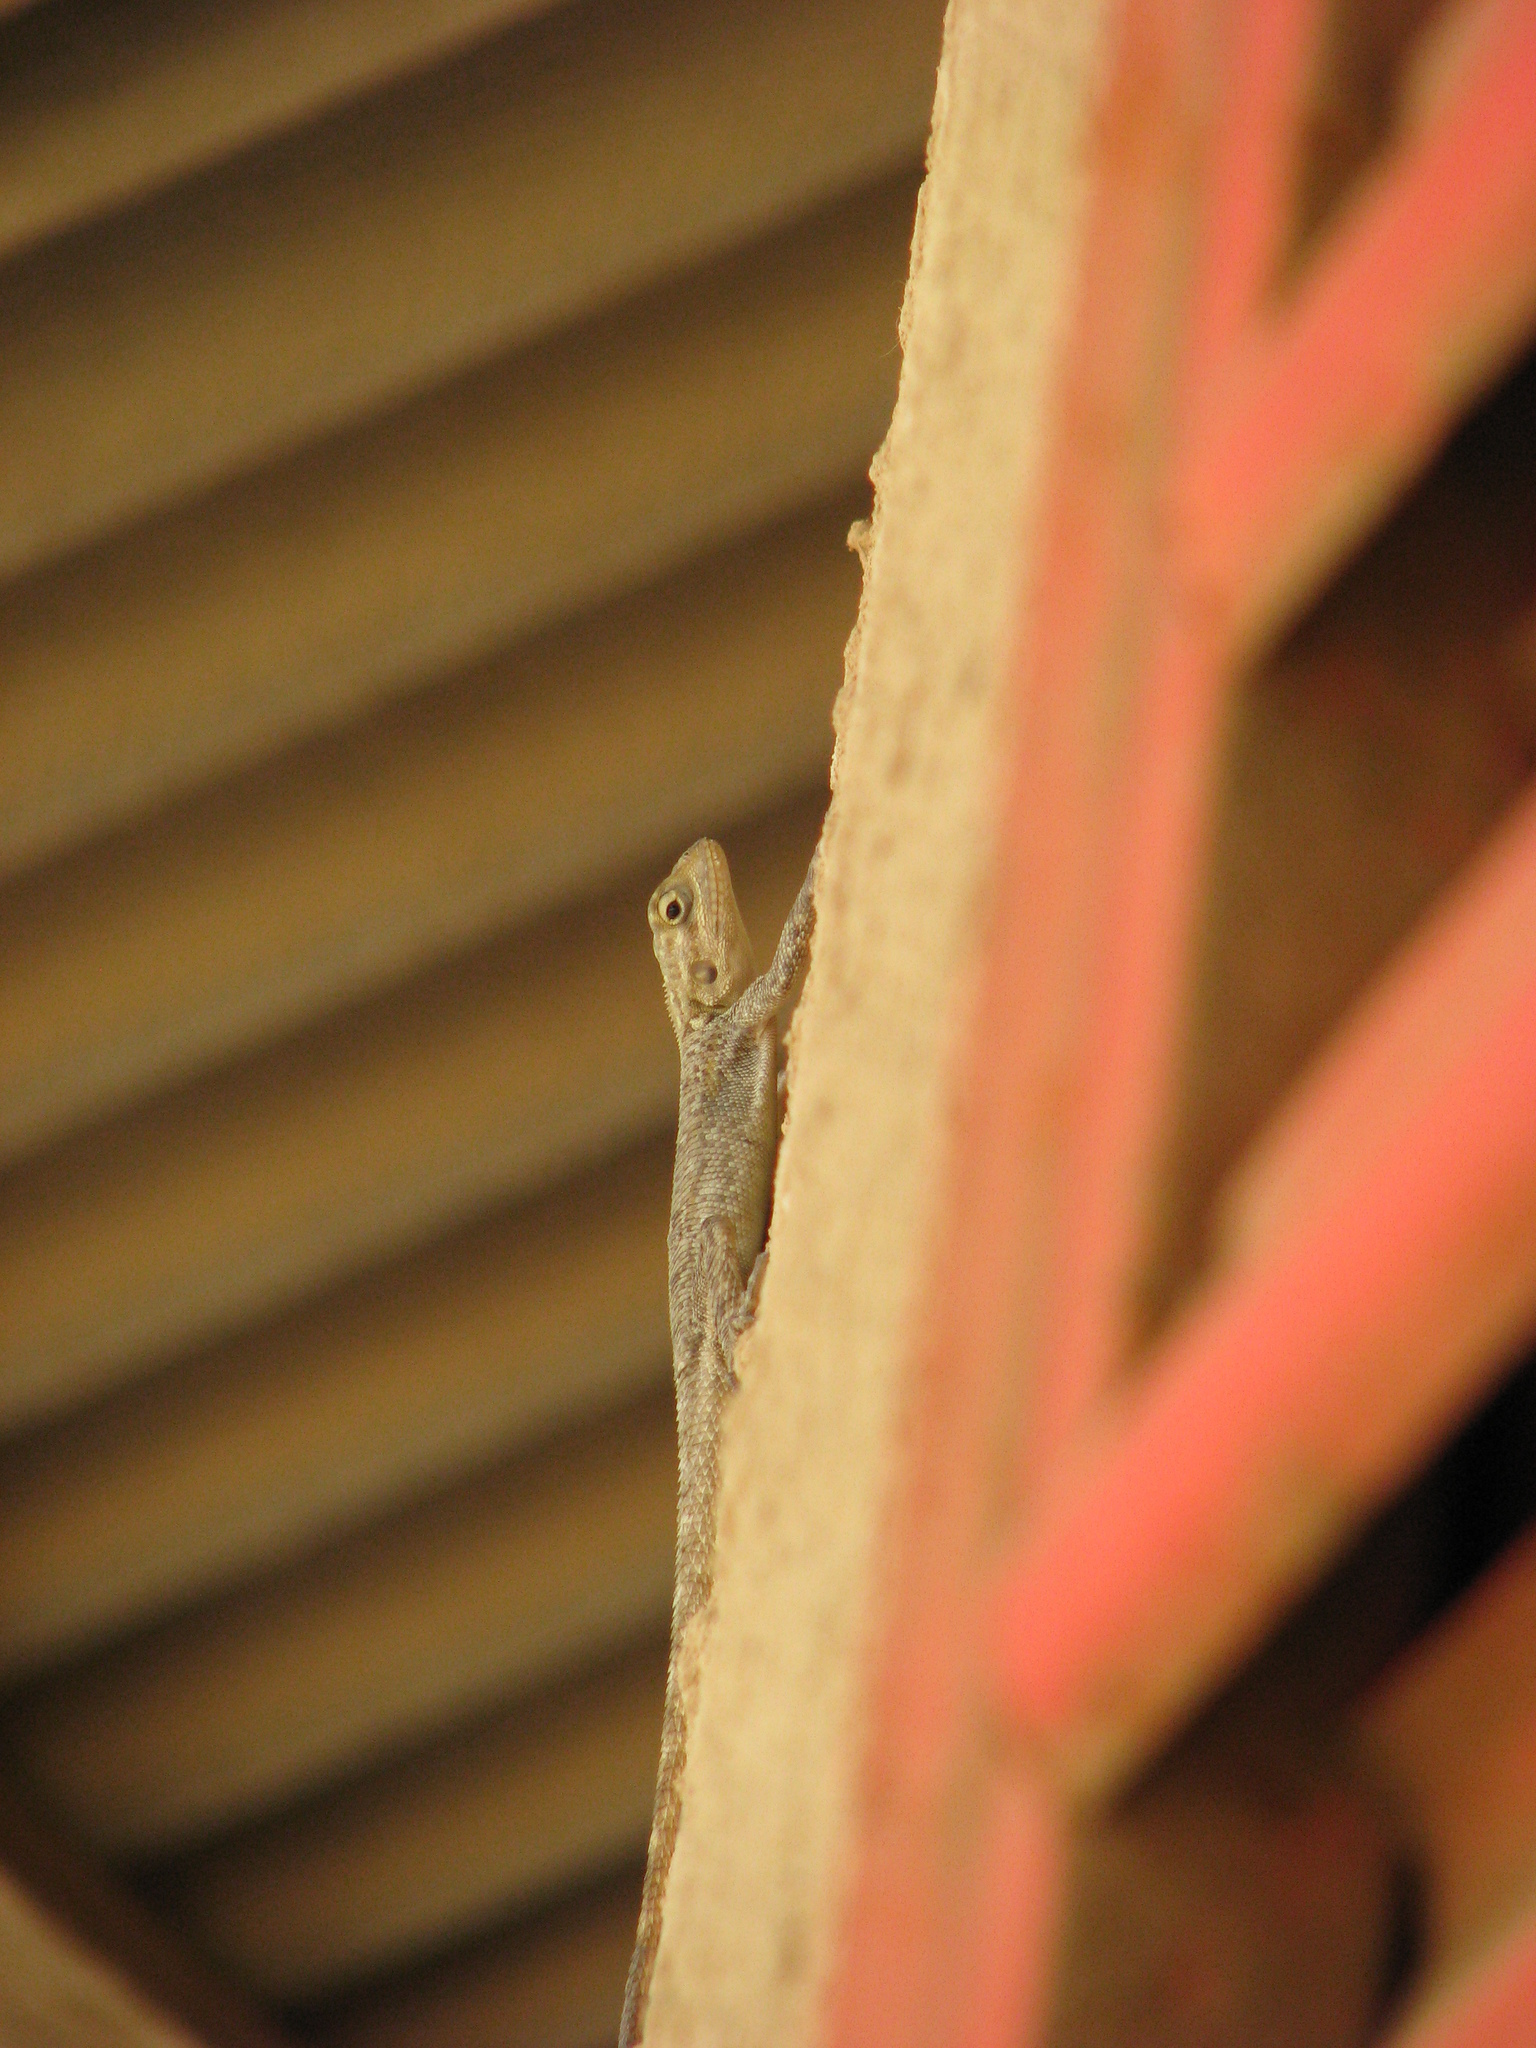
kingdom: Animalia
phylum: Chordata
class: Squamata
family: Agamidae
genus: Agama
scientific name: Agama agama
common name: Common agama
